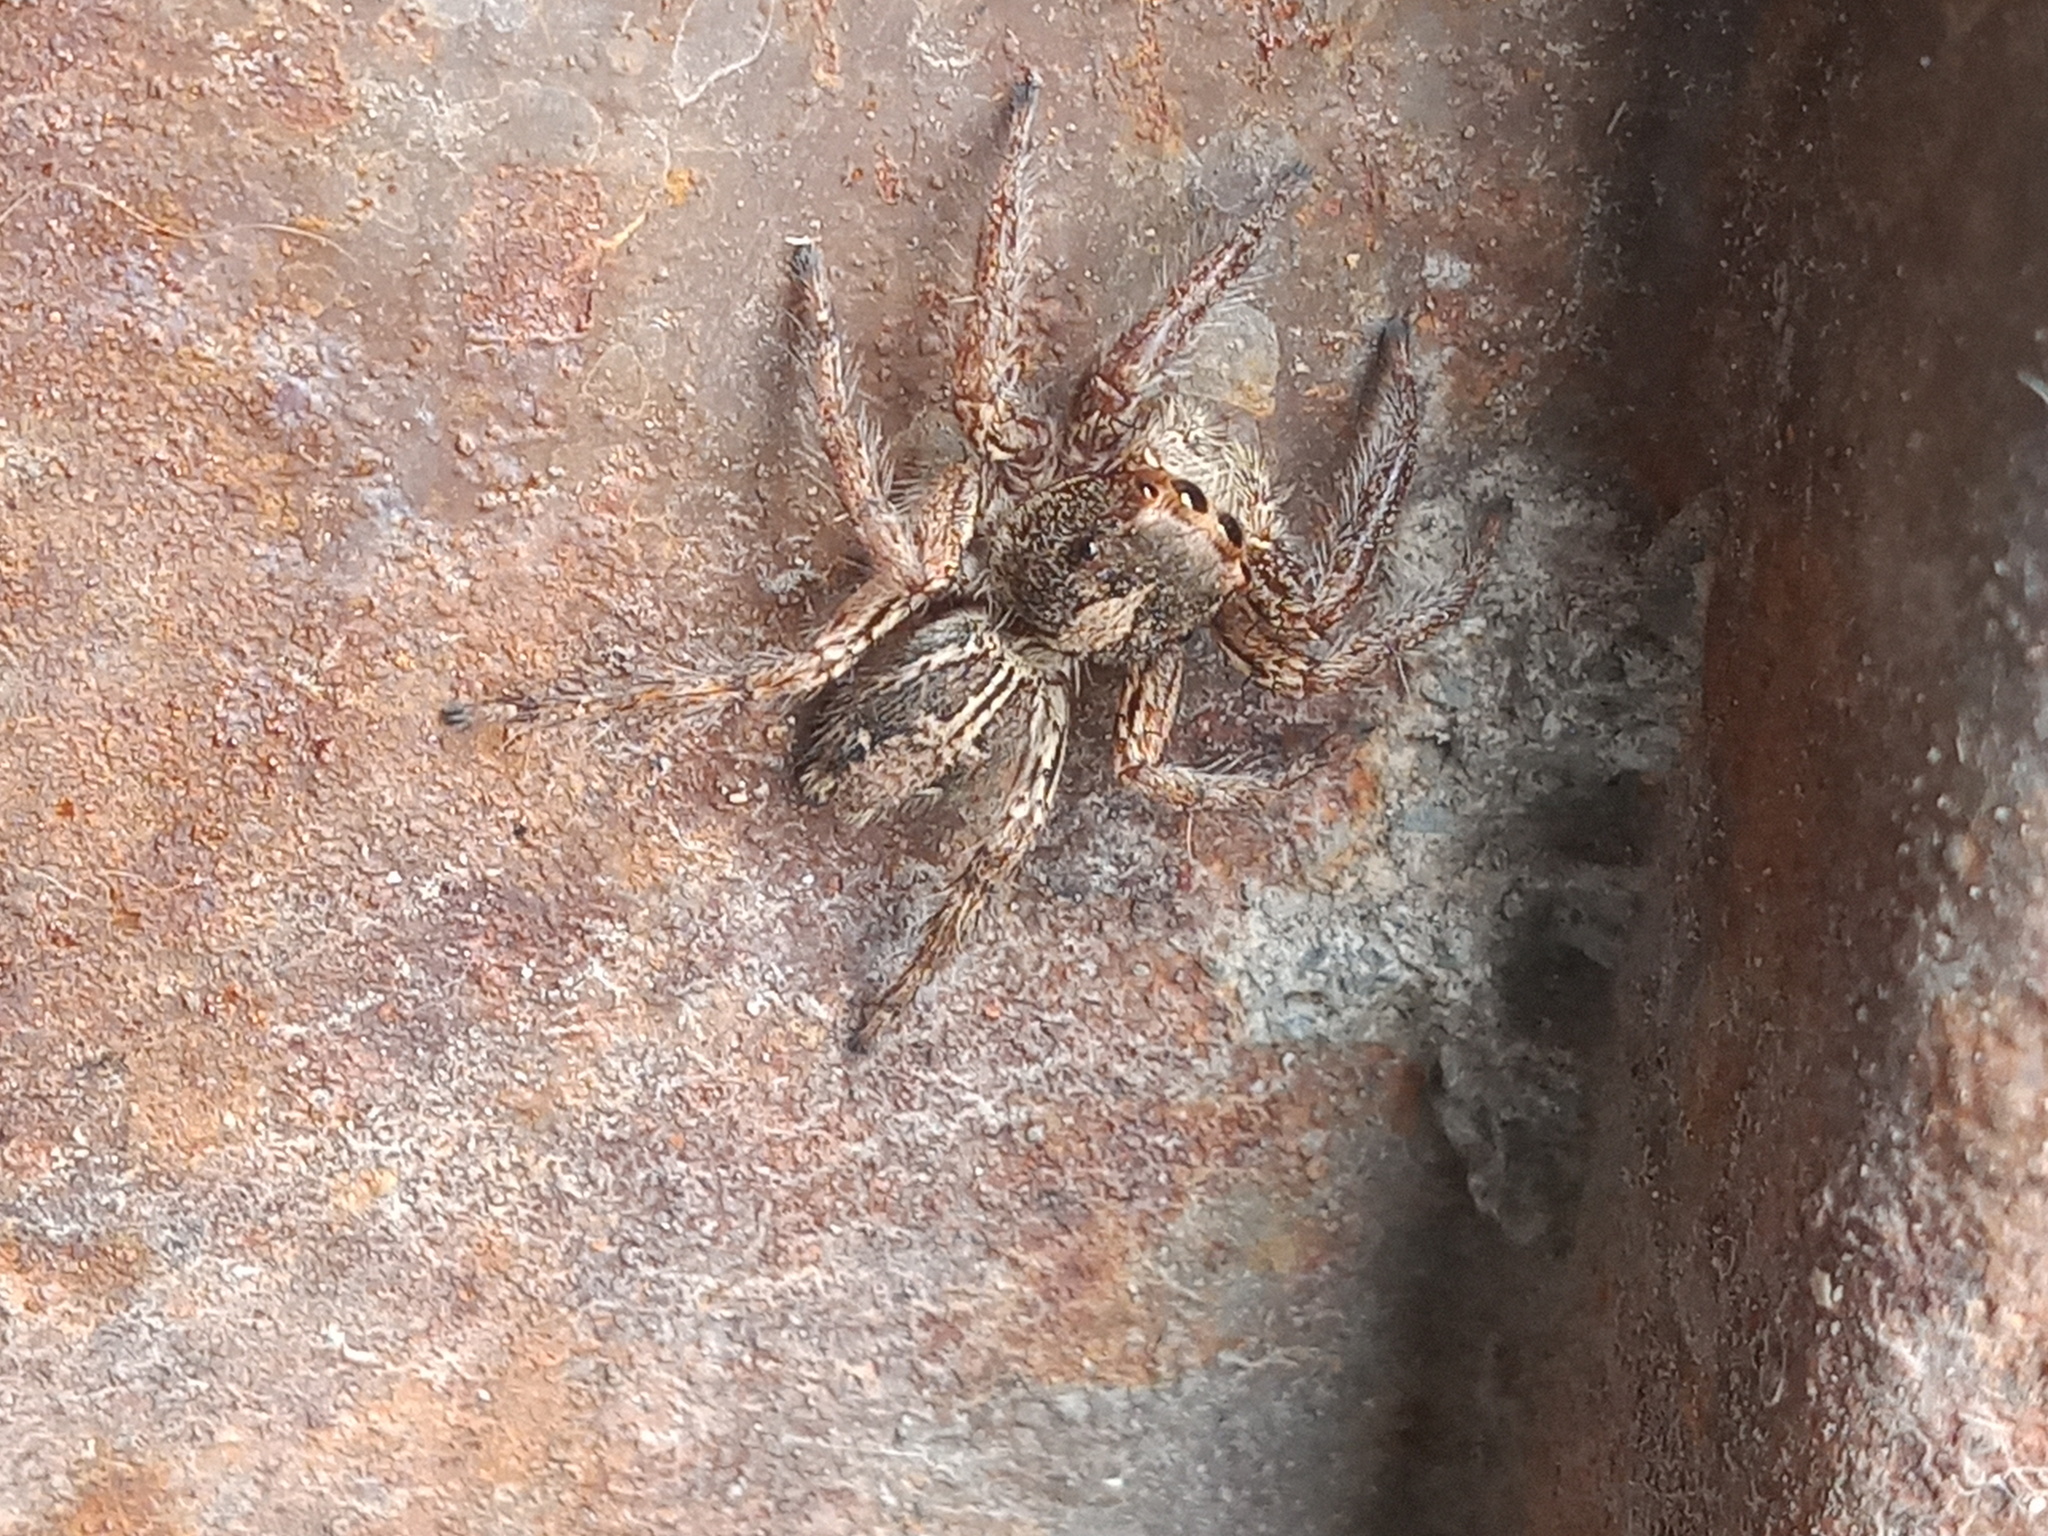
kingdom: Animalia
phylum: Arthropoda
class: Arachnida
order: Araneae
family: Salticidae
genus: Plexippus
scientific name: Plexippus paykulli
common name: Pantropical jumper
